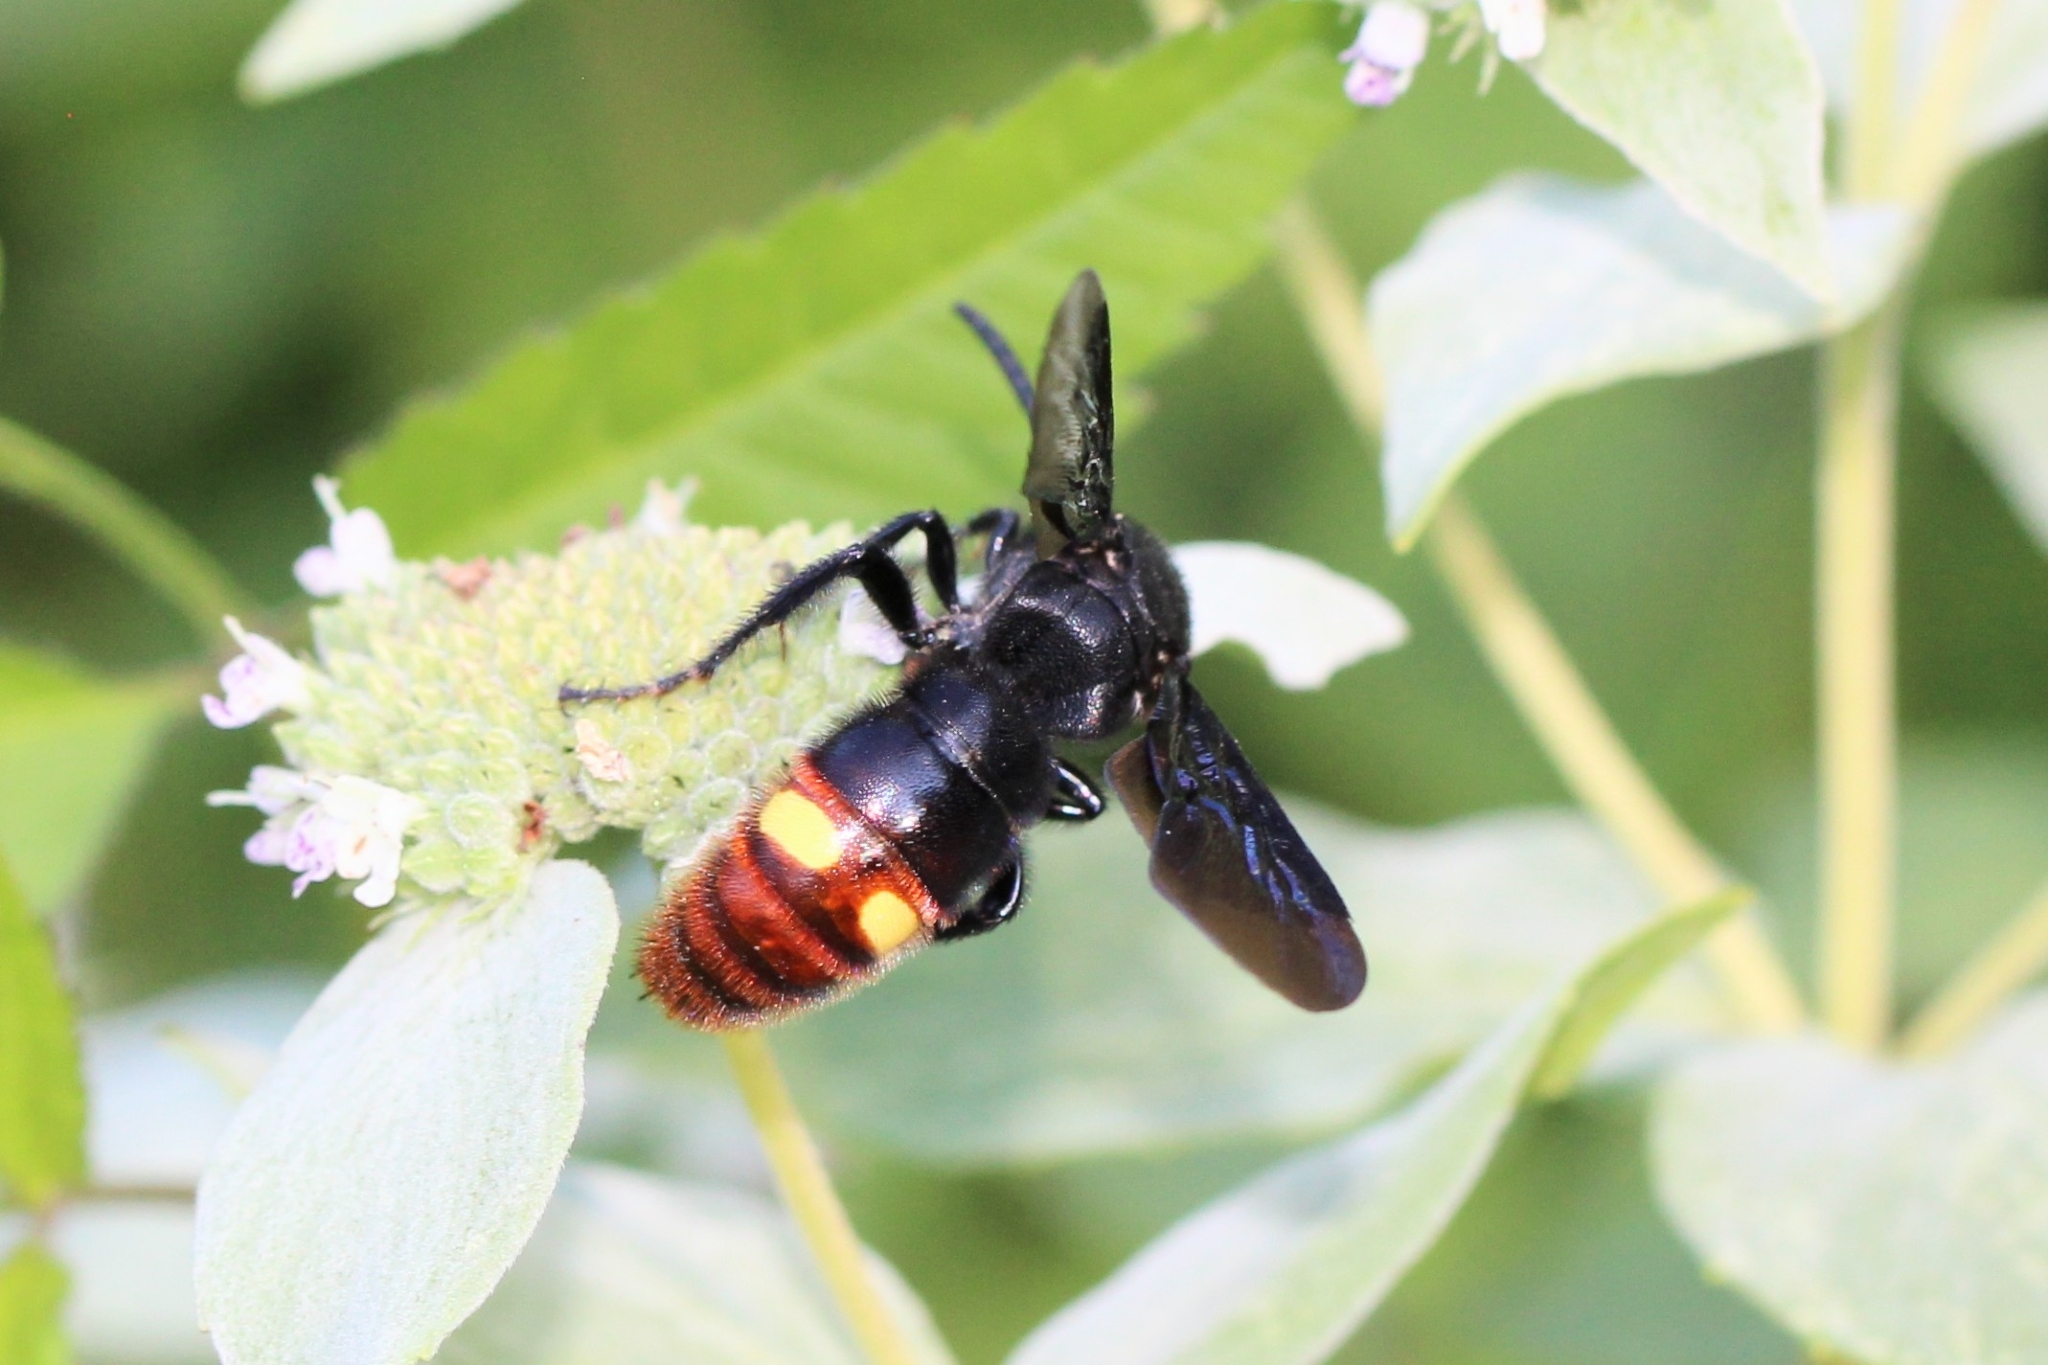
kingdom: Animalia
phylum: Arthropoda
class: Insecta
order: Hymenoptera
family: Scoliidae
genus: Scolia
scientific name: Scolia dubia
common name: Blue-winged scoliid wasp
